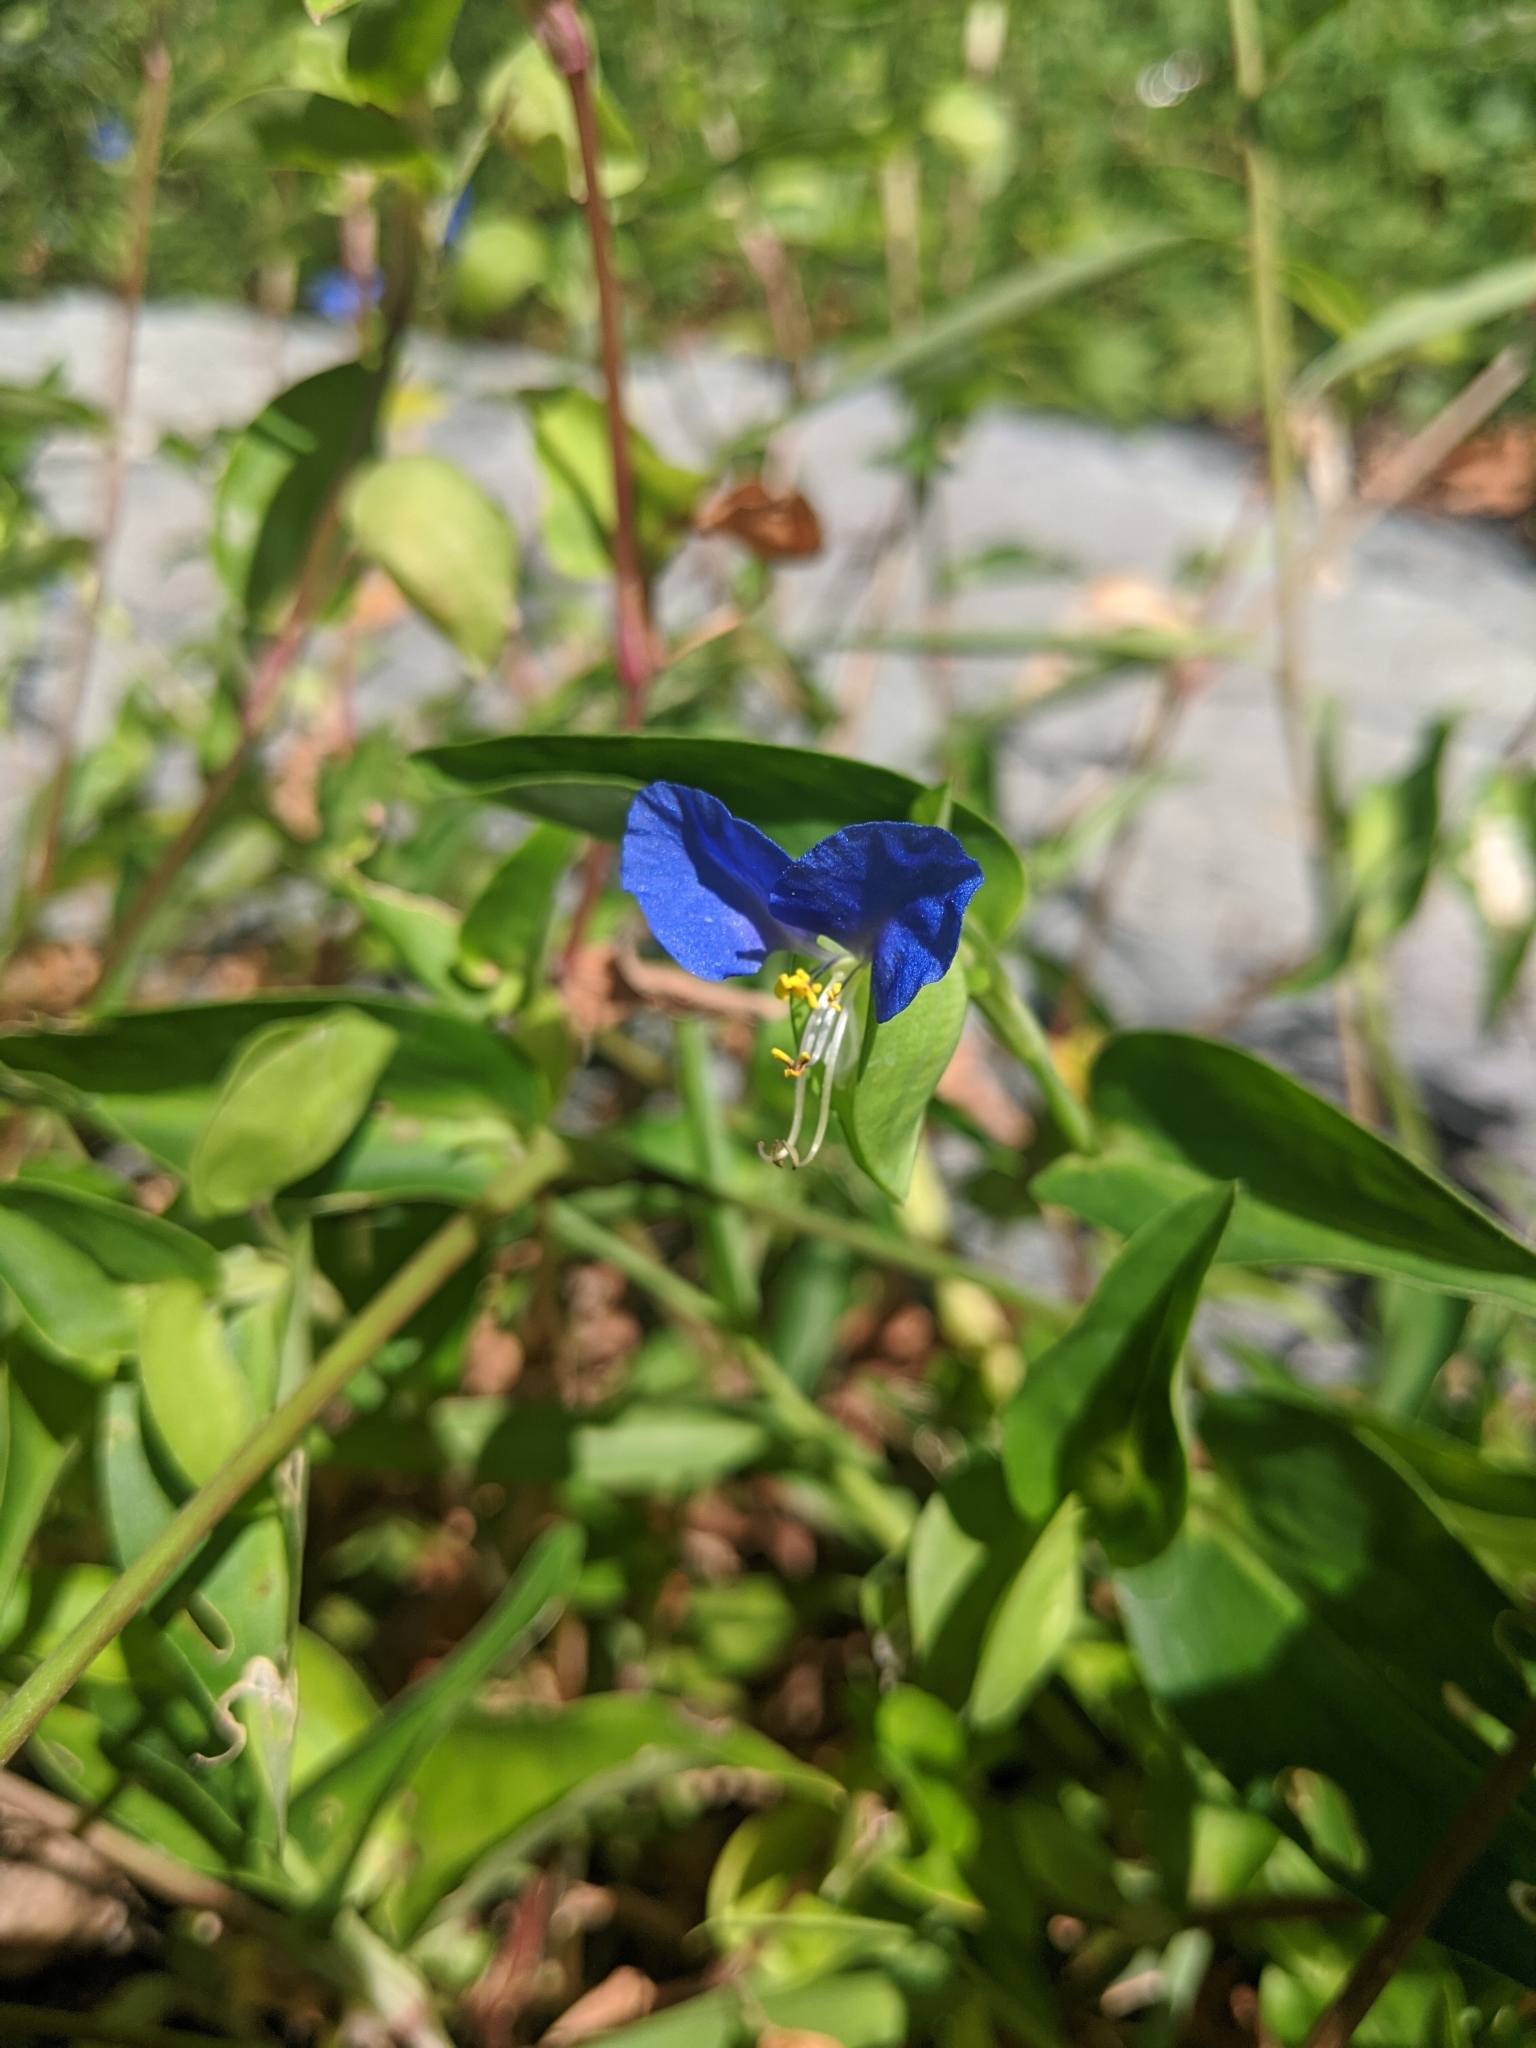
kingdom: Plantae
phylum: Tracheophyta
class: Liliopsida
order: Commelinales
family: Commelinaceae
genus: Commelina
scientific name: Commelina communis
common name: Asiatic dayflower
